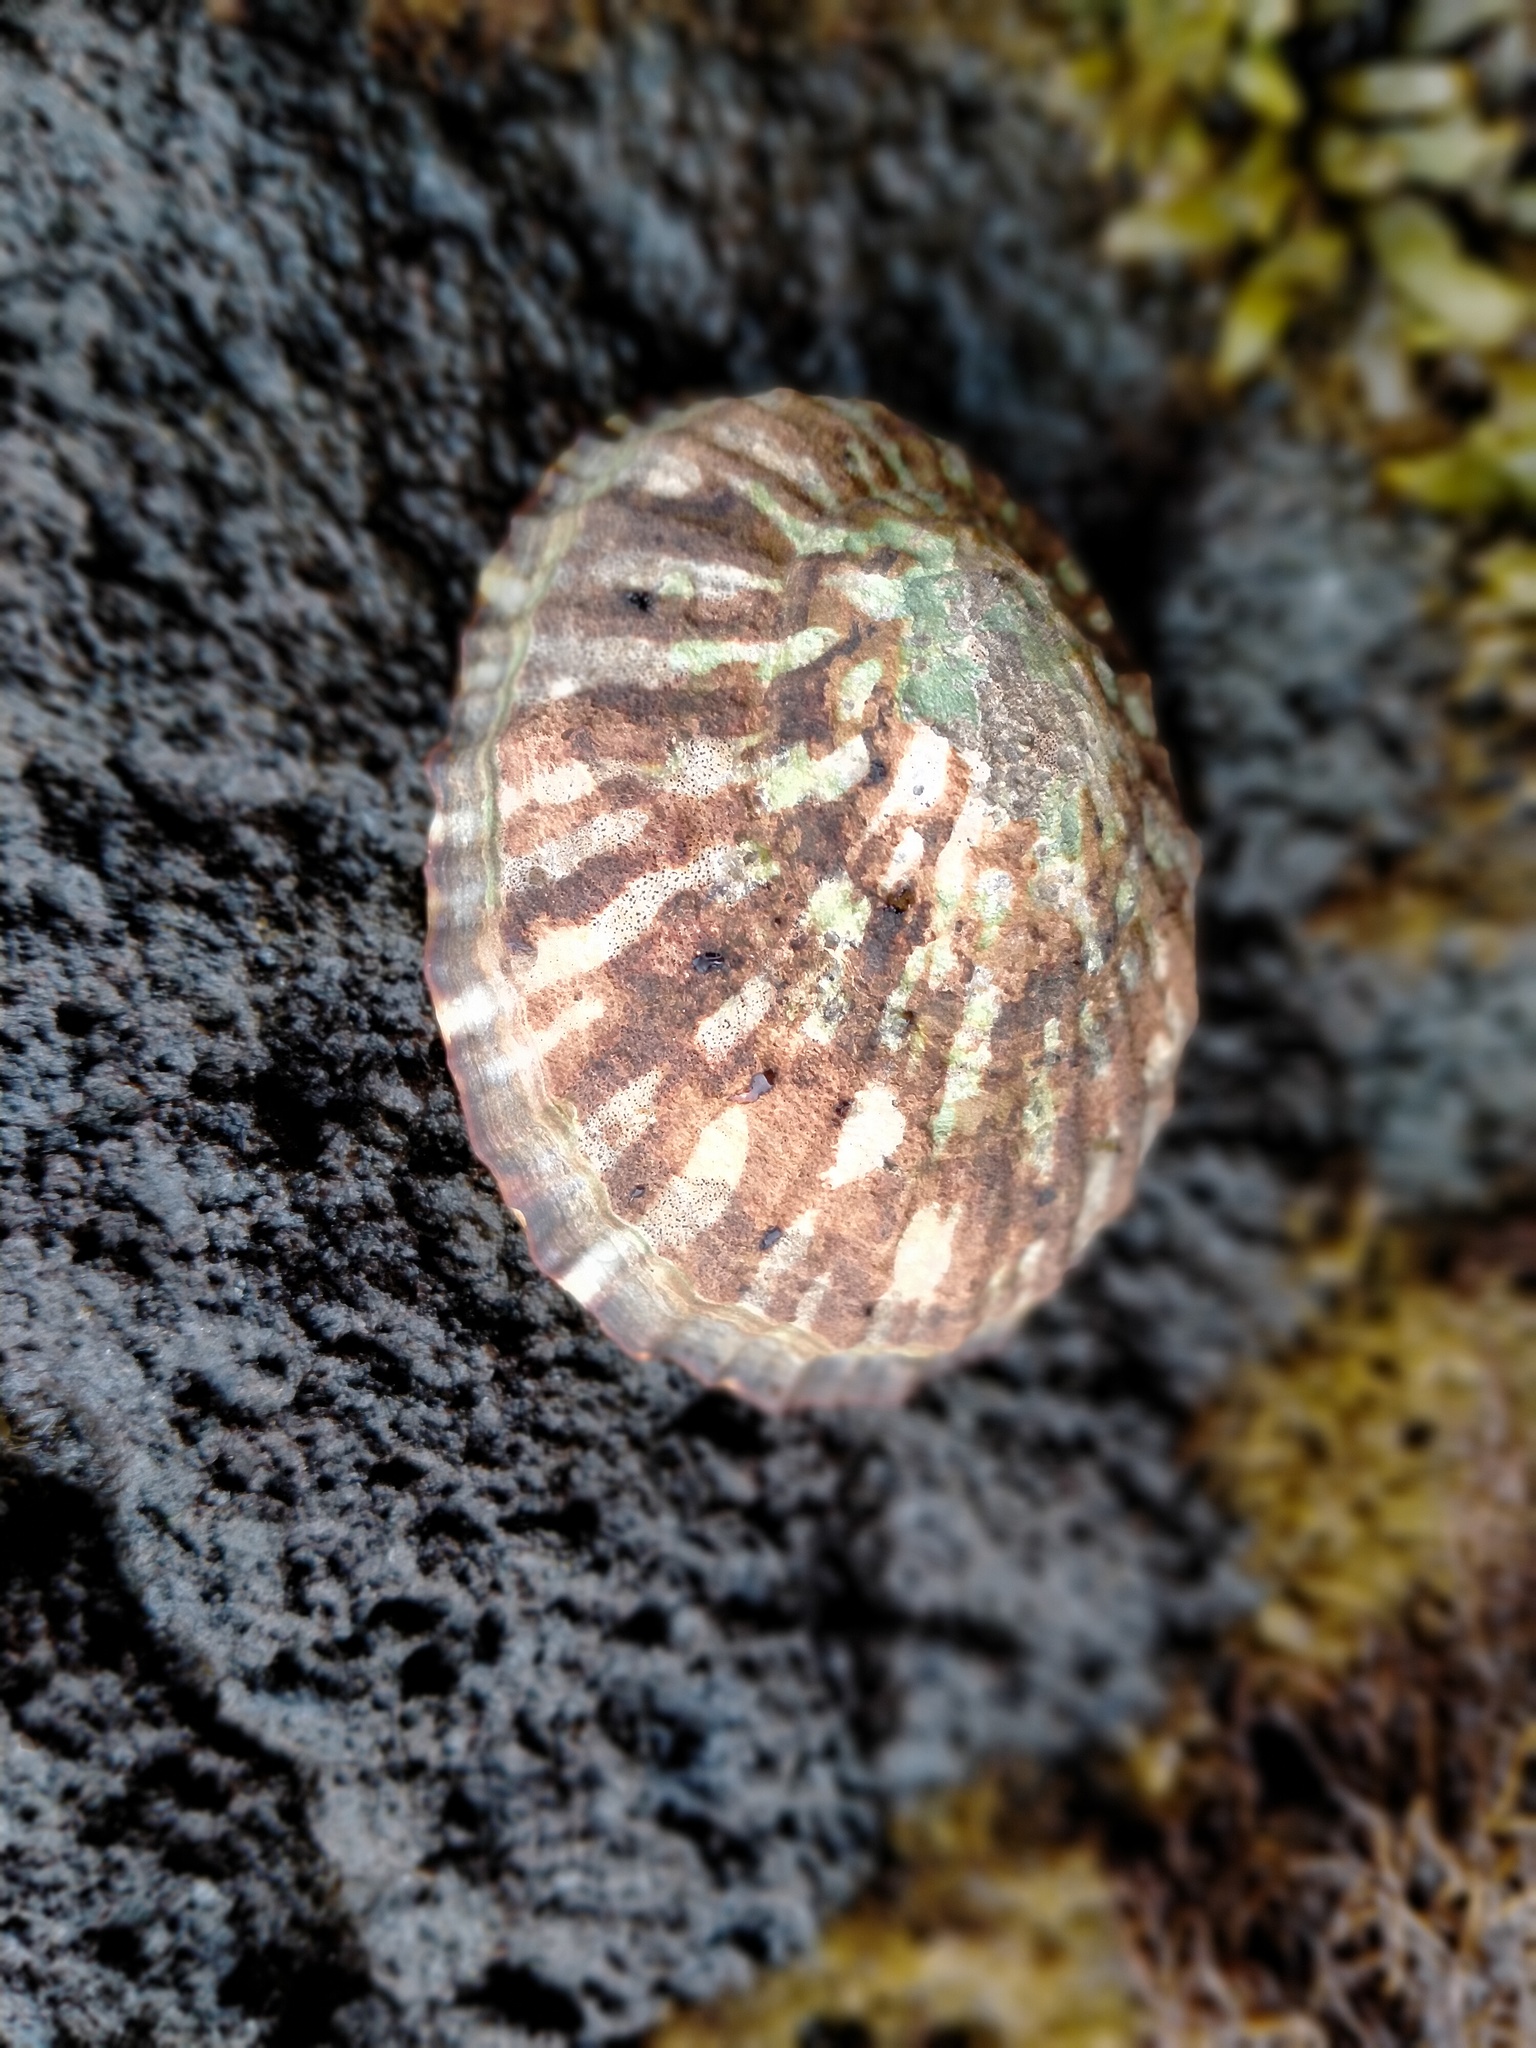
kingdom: Animalia
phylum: Mollusca
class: Gastropoda
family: Nacellidae
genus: Cellana
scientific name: Cellana strigilis
